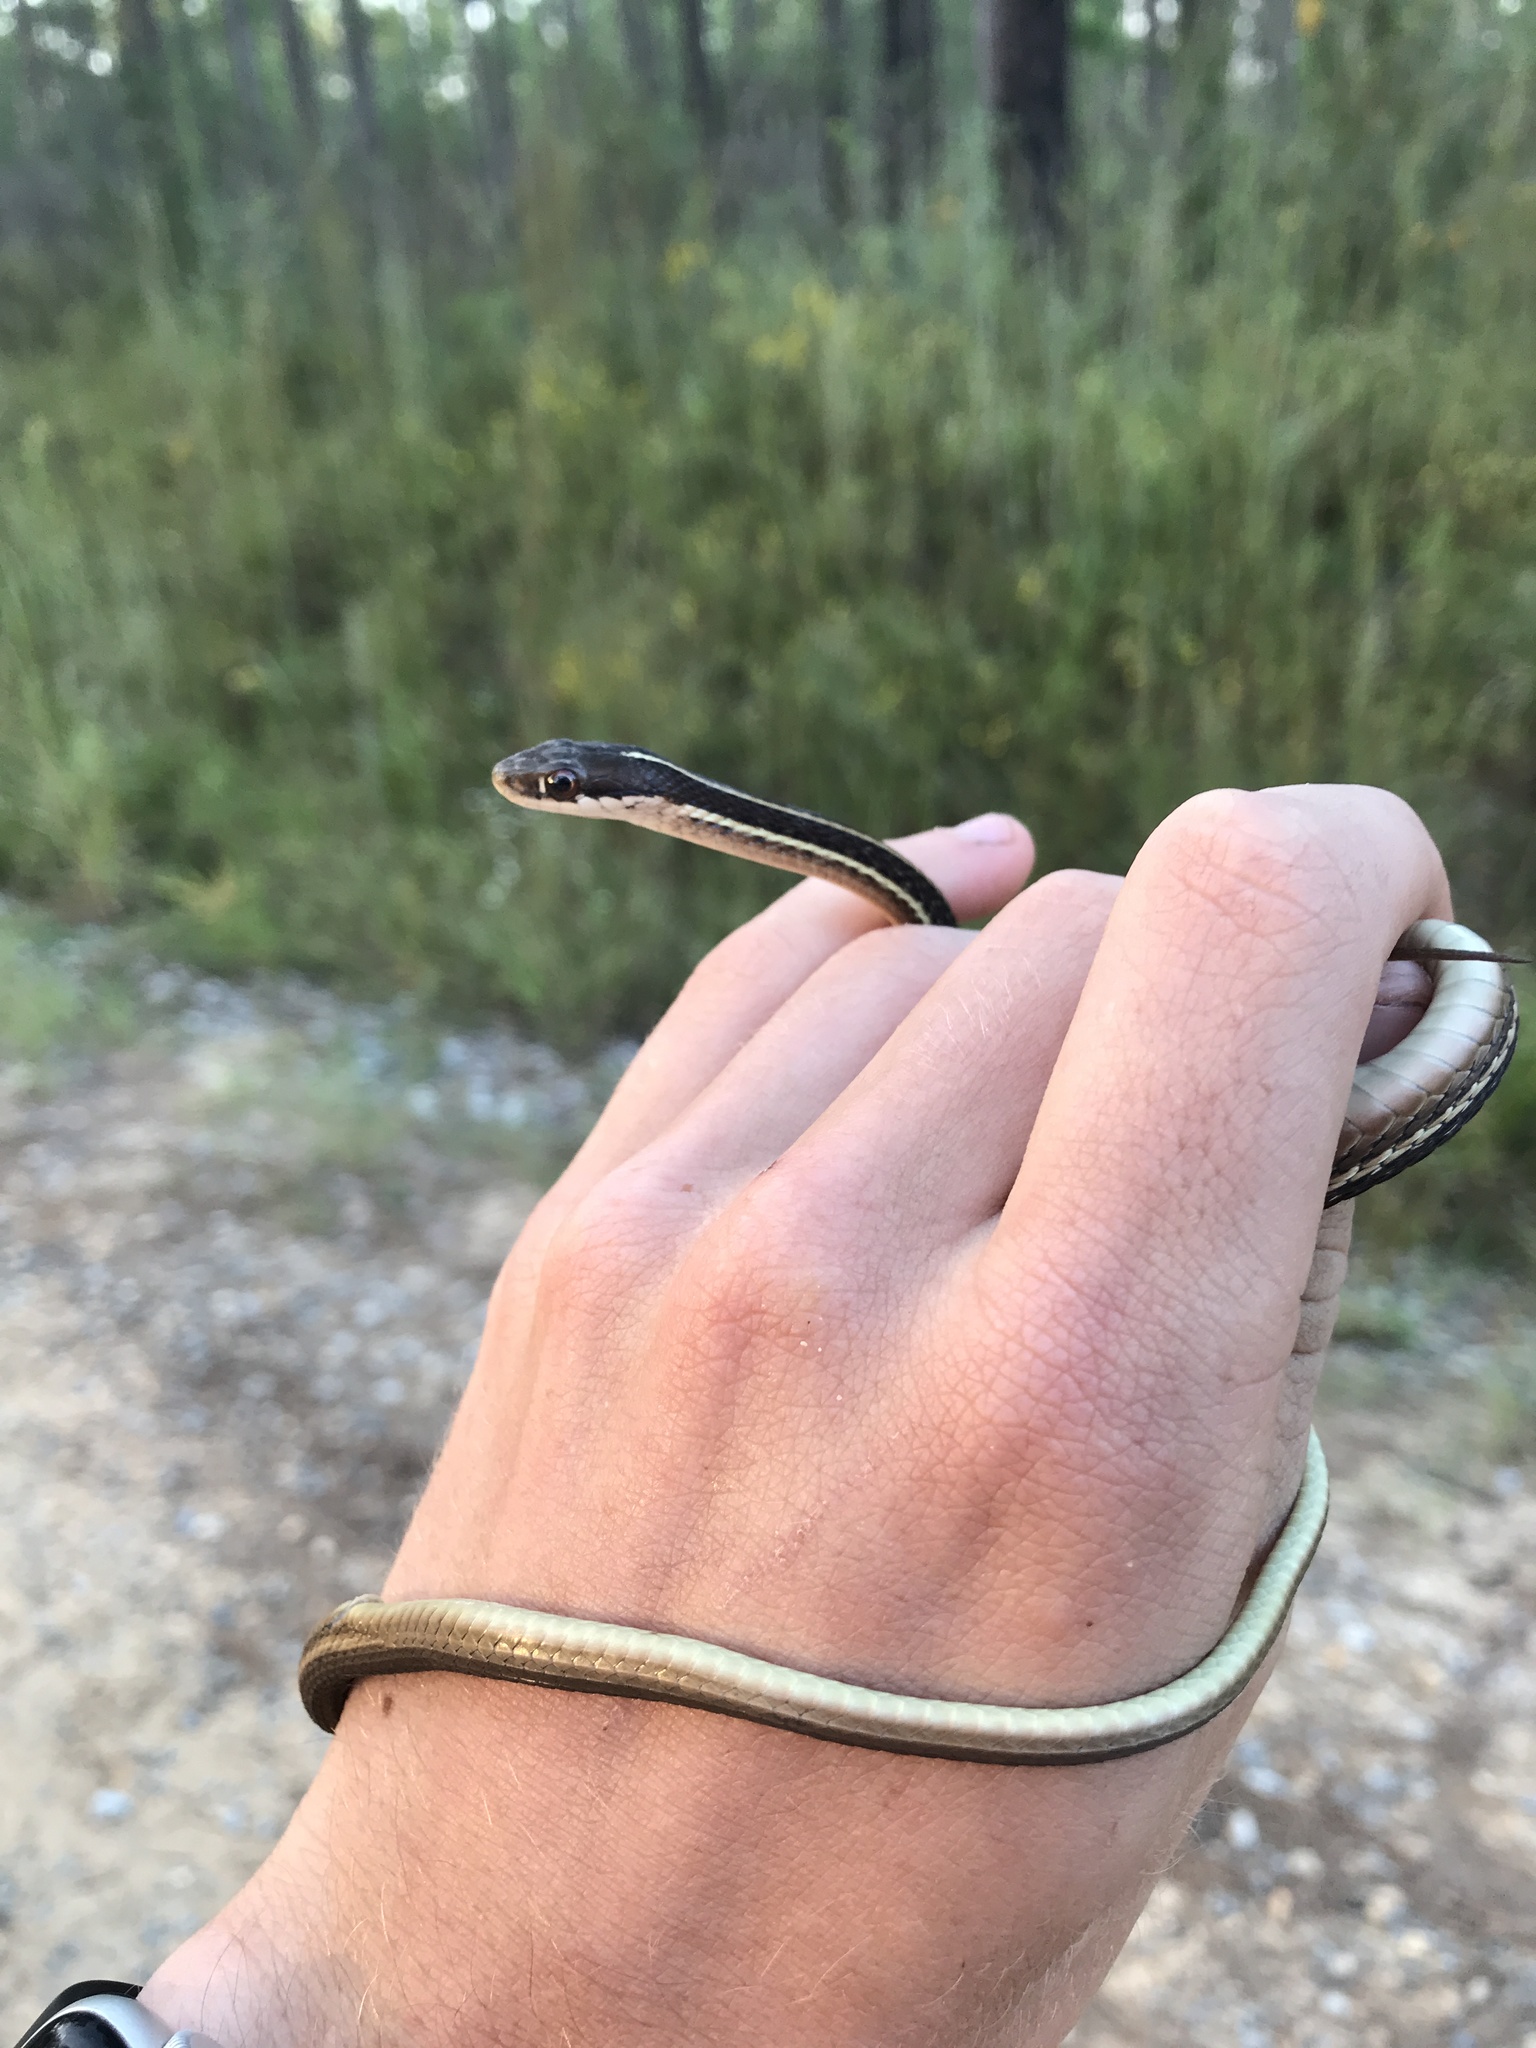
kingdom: Animalia
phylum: Chordata
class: Squamata
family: Colubridae
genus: Thamnophis
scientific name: Thamnophis saurita
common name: Eastern ribbonsnake
